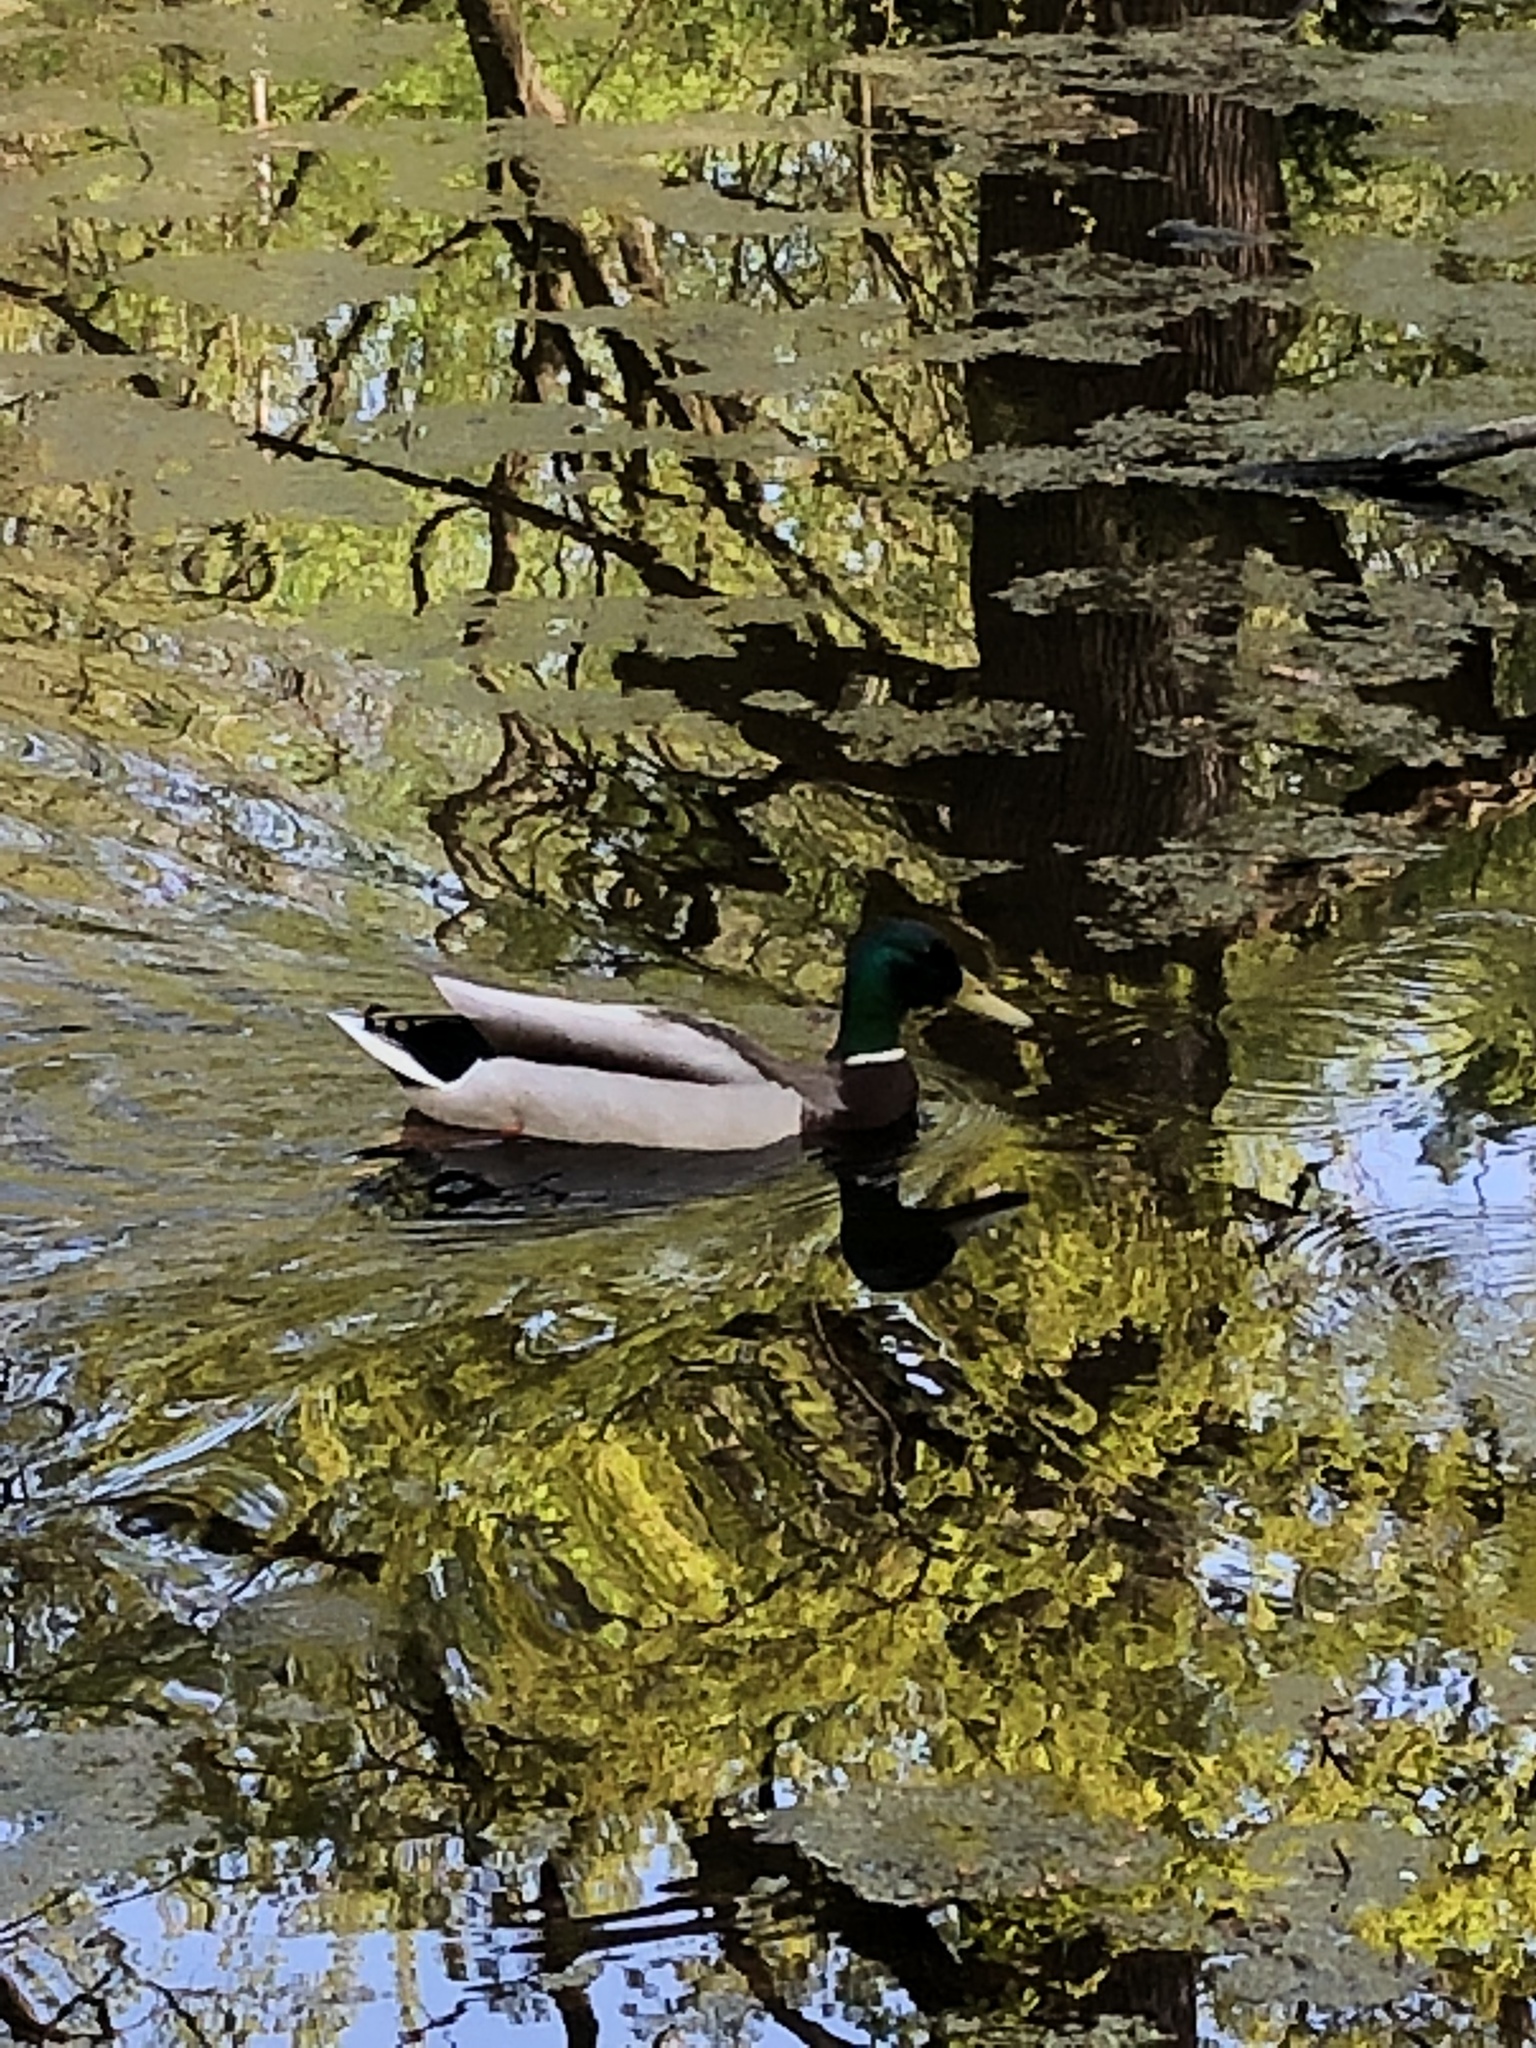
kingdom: Animalia
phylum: Chordata
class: Aves
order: Anseriformes
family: Anatidae
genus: Anas
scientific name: Anas platyrhynchos
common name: Mallard
